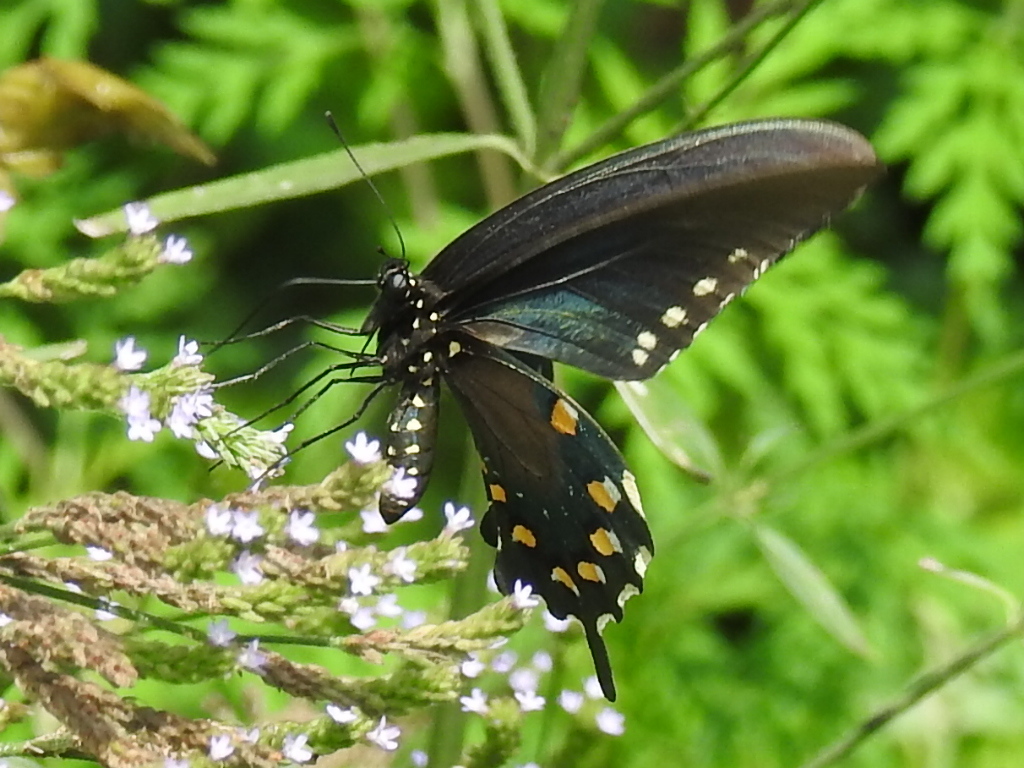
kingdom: Animalia
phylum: Arthropoda
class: Insecta
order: Lepidoptera
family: Papilionidae
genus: Battus
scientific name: Battus philenor
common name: Pipevine swallowtail
